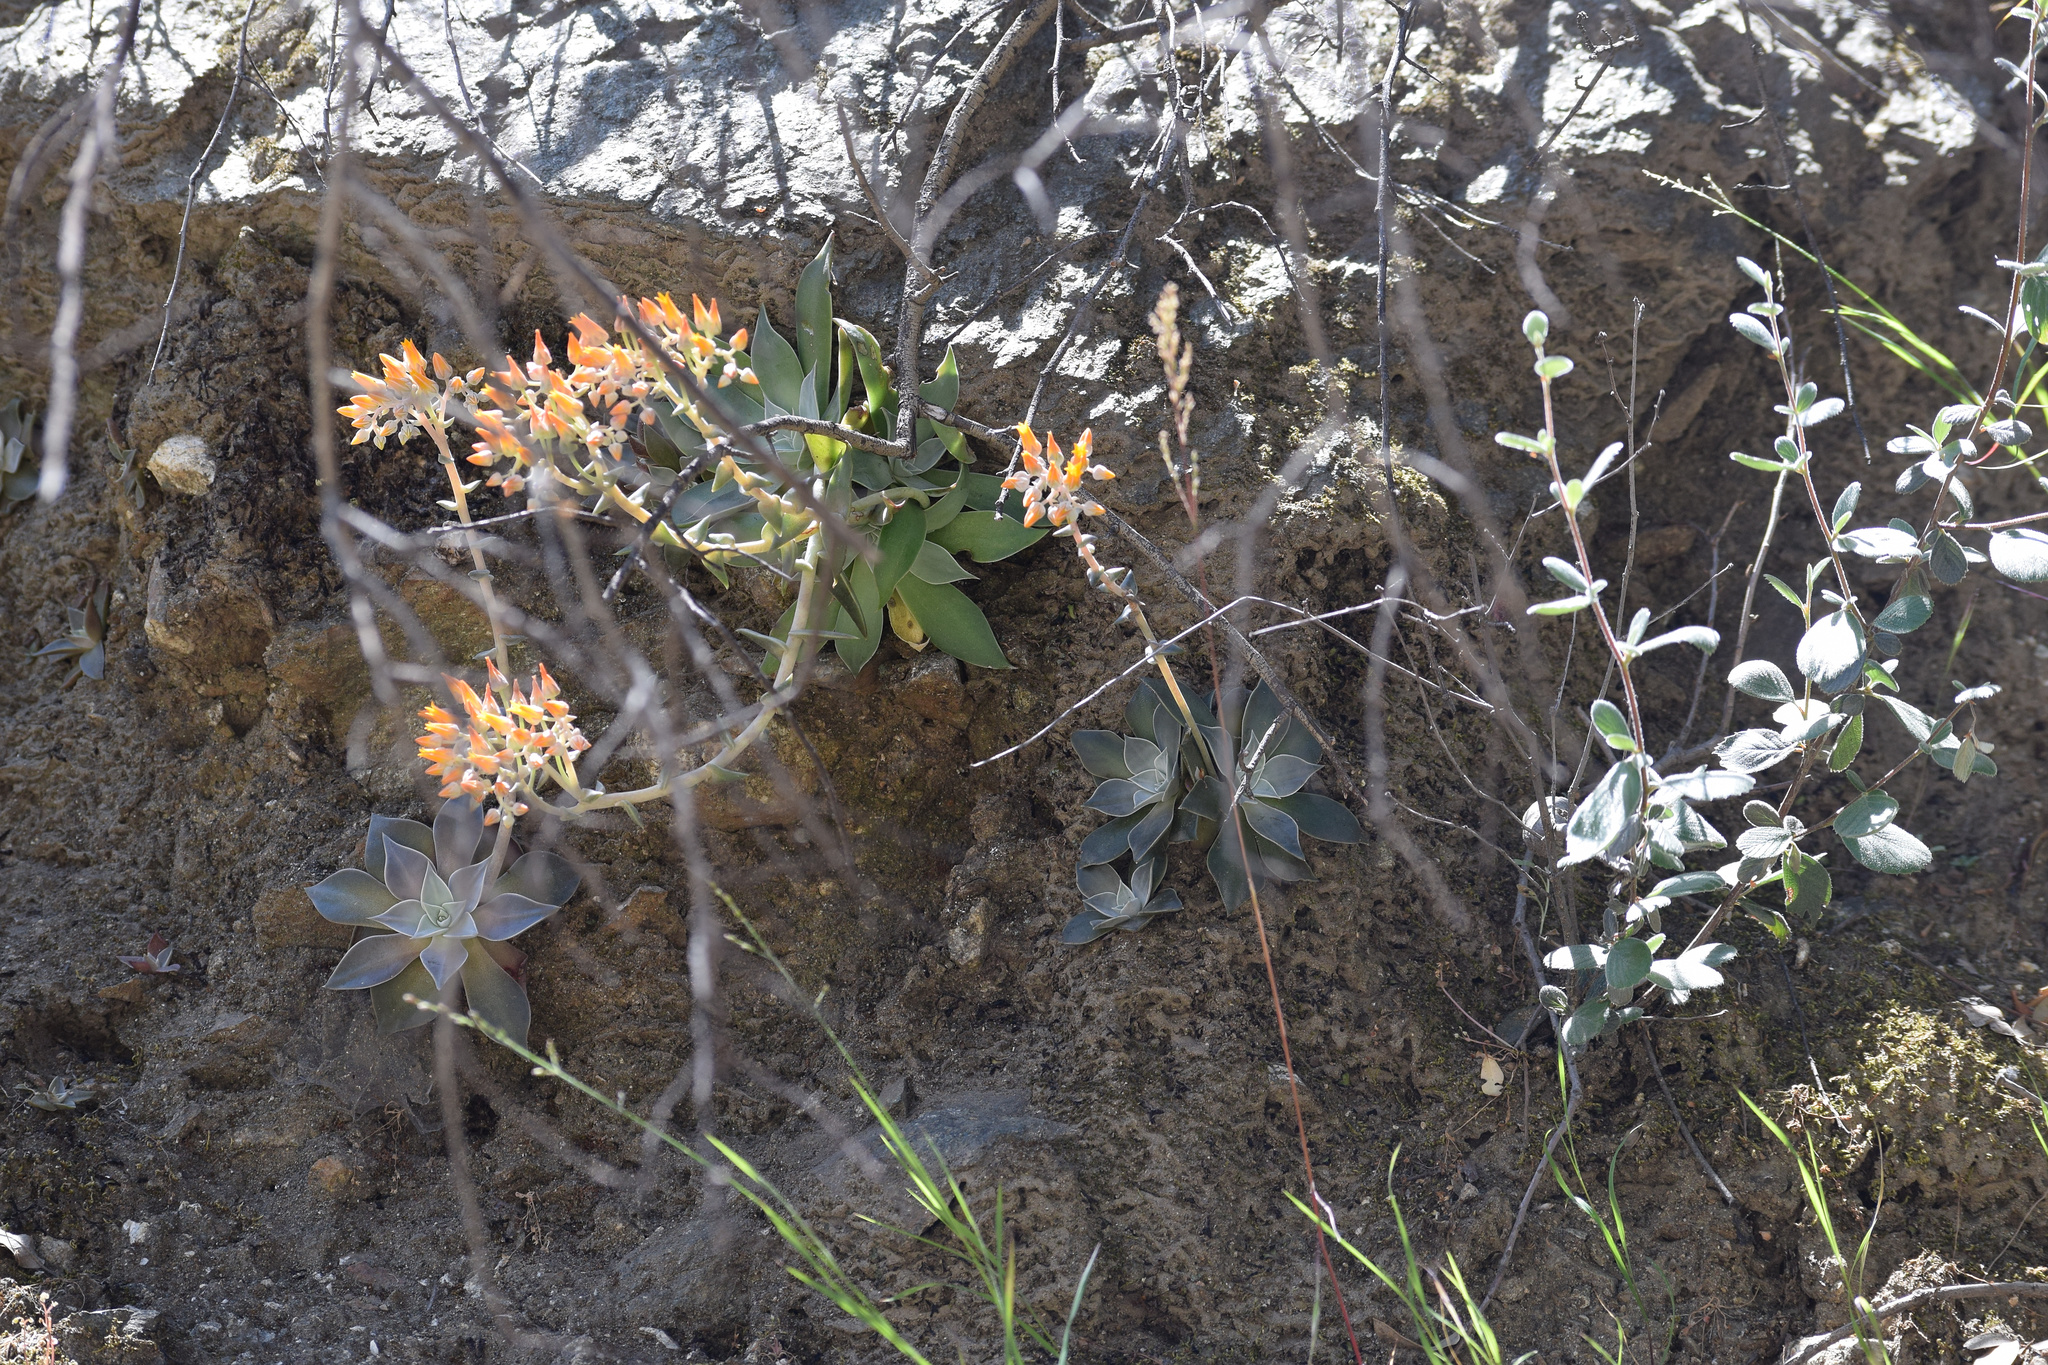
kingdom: Plantae
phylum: Tracheophyta
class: Magnoliopsida
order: Saxifragales
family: Crassulaceae
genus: Dudleya
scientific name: Dudleya cymosa
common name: Canyon dudleya
